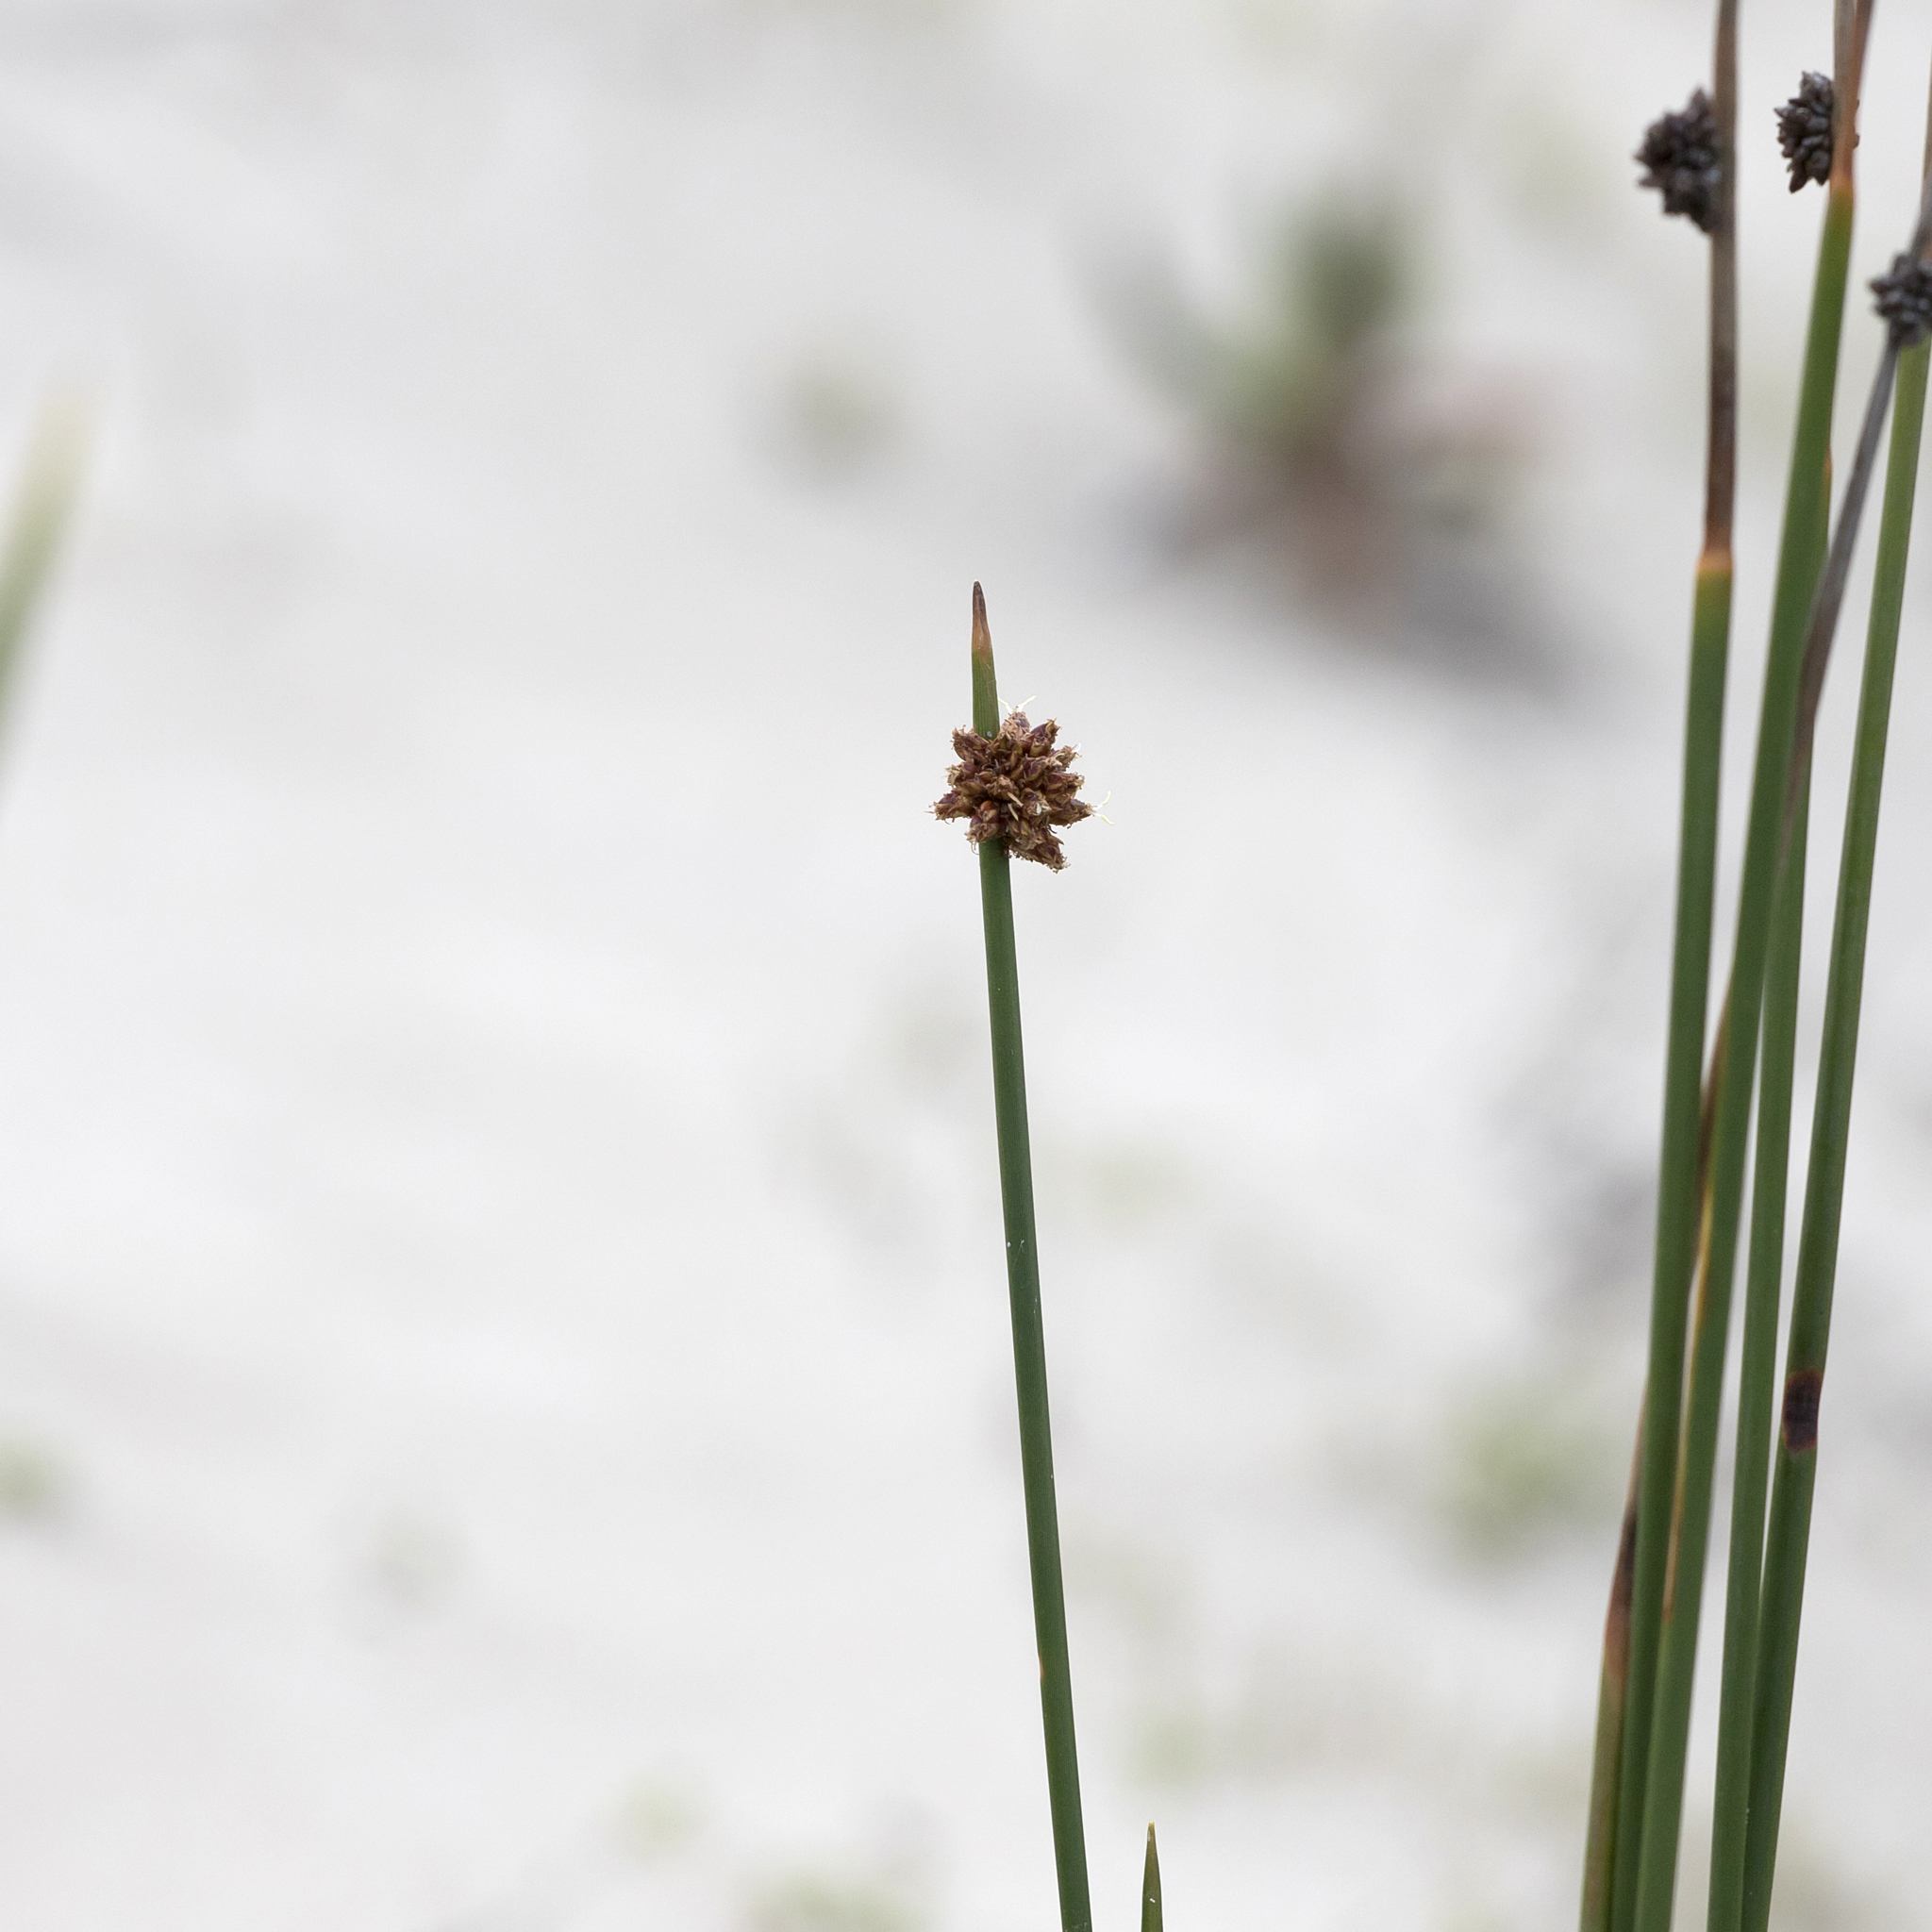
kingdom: Plantae
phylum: Tracheophyta
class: Liliopsida
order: Poales
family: Cyperaceae
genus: Ficinia
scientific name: Ficinia nodosa
